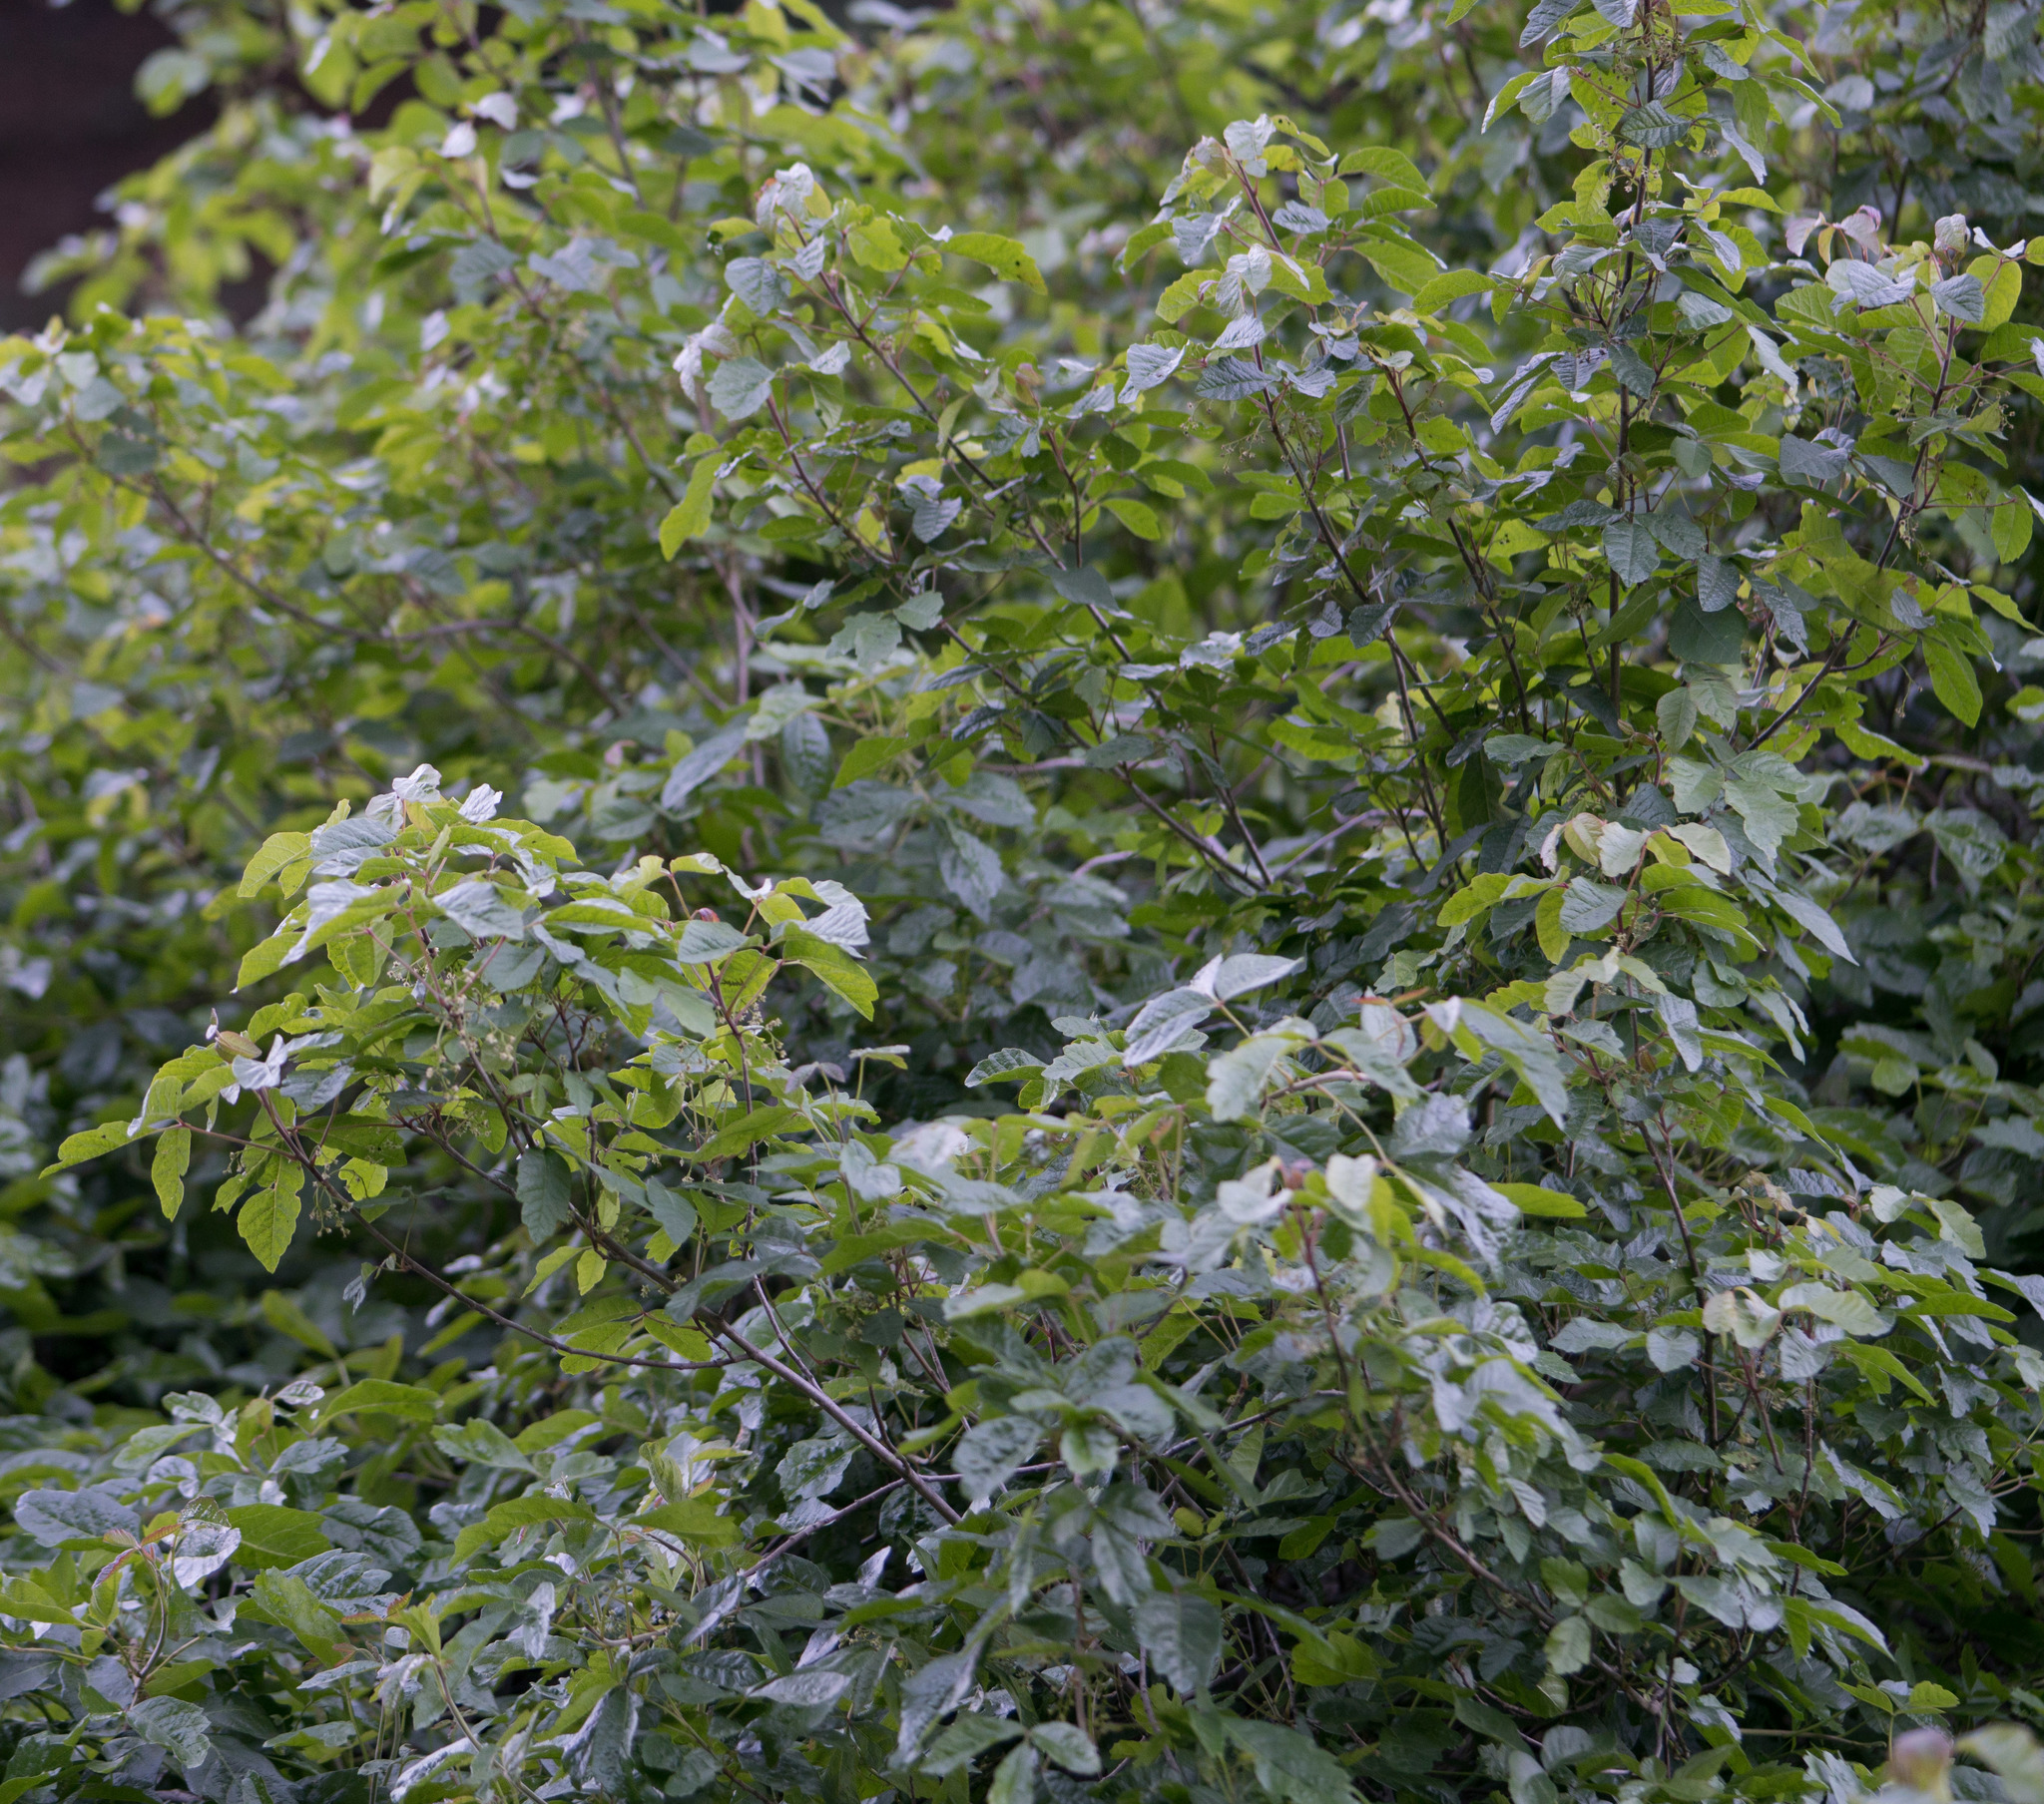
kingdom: Plantae
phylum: Tracheophyta
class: Magnoliopsida
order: Sapindales
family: Anacardiaceae
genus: Toxicodendron
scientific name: Toxicodendron diversilobum
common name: Pacific poison-oak
